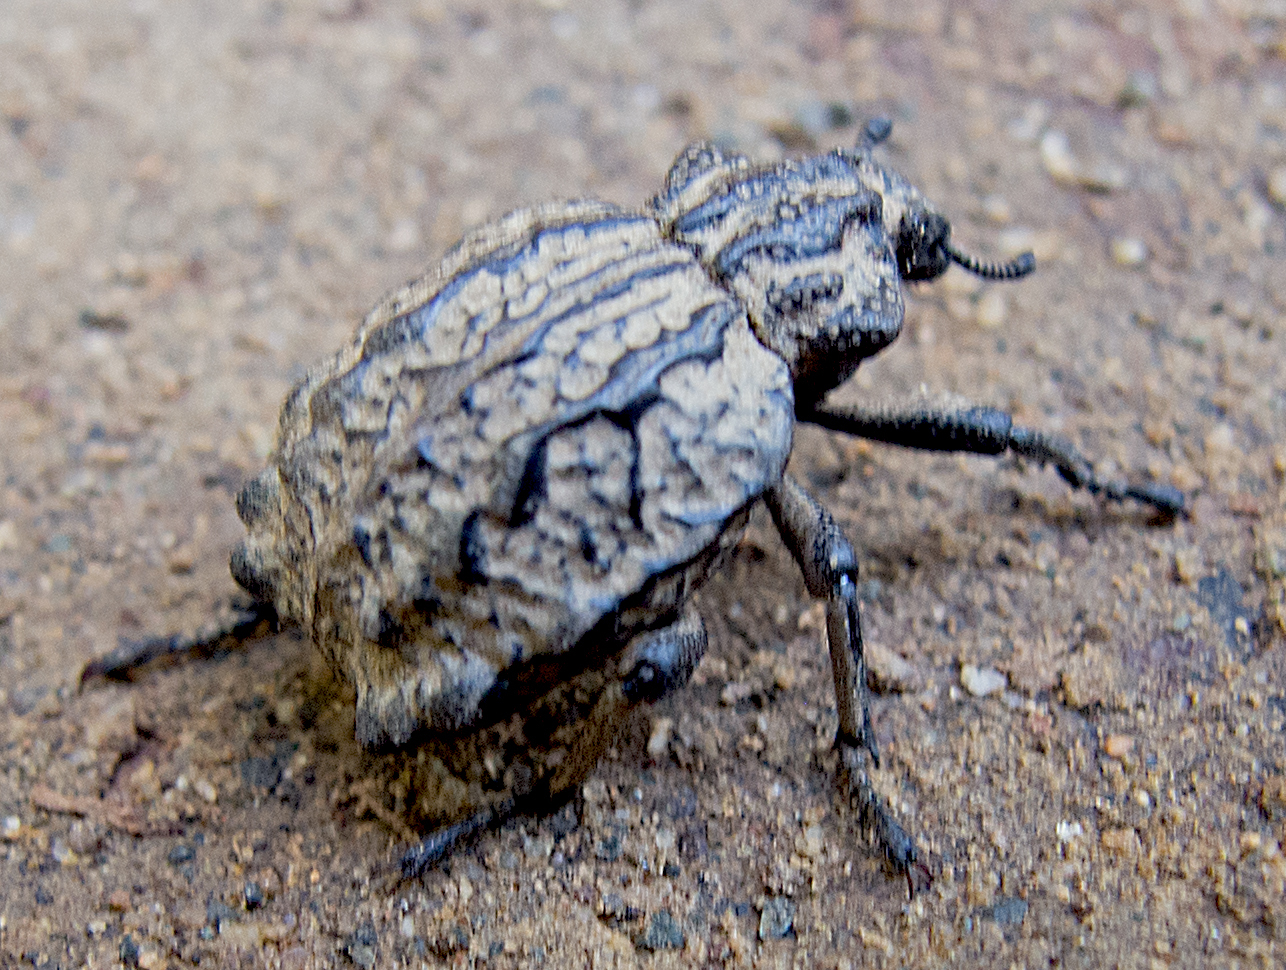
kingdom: Animalia
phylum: Arthropoda
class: Insecta
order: Coleoptera
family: Brachyceridae
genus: Brachycerus
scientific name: Brachycerus undatus
